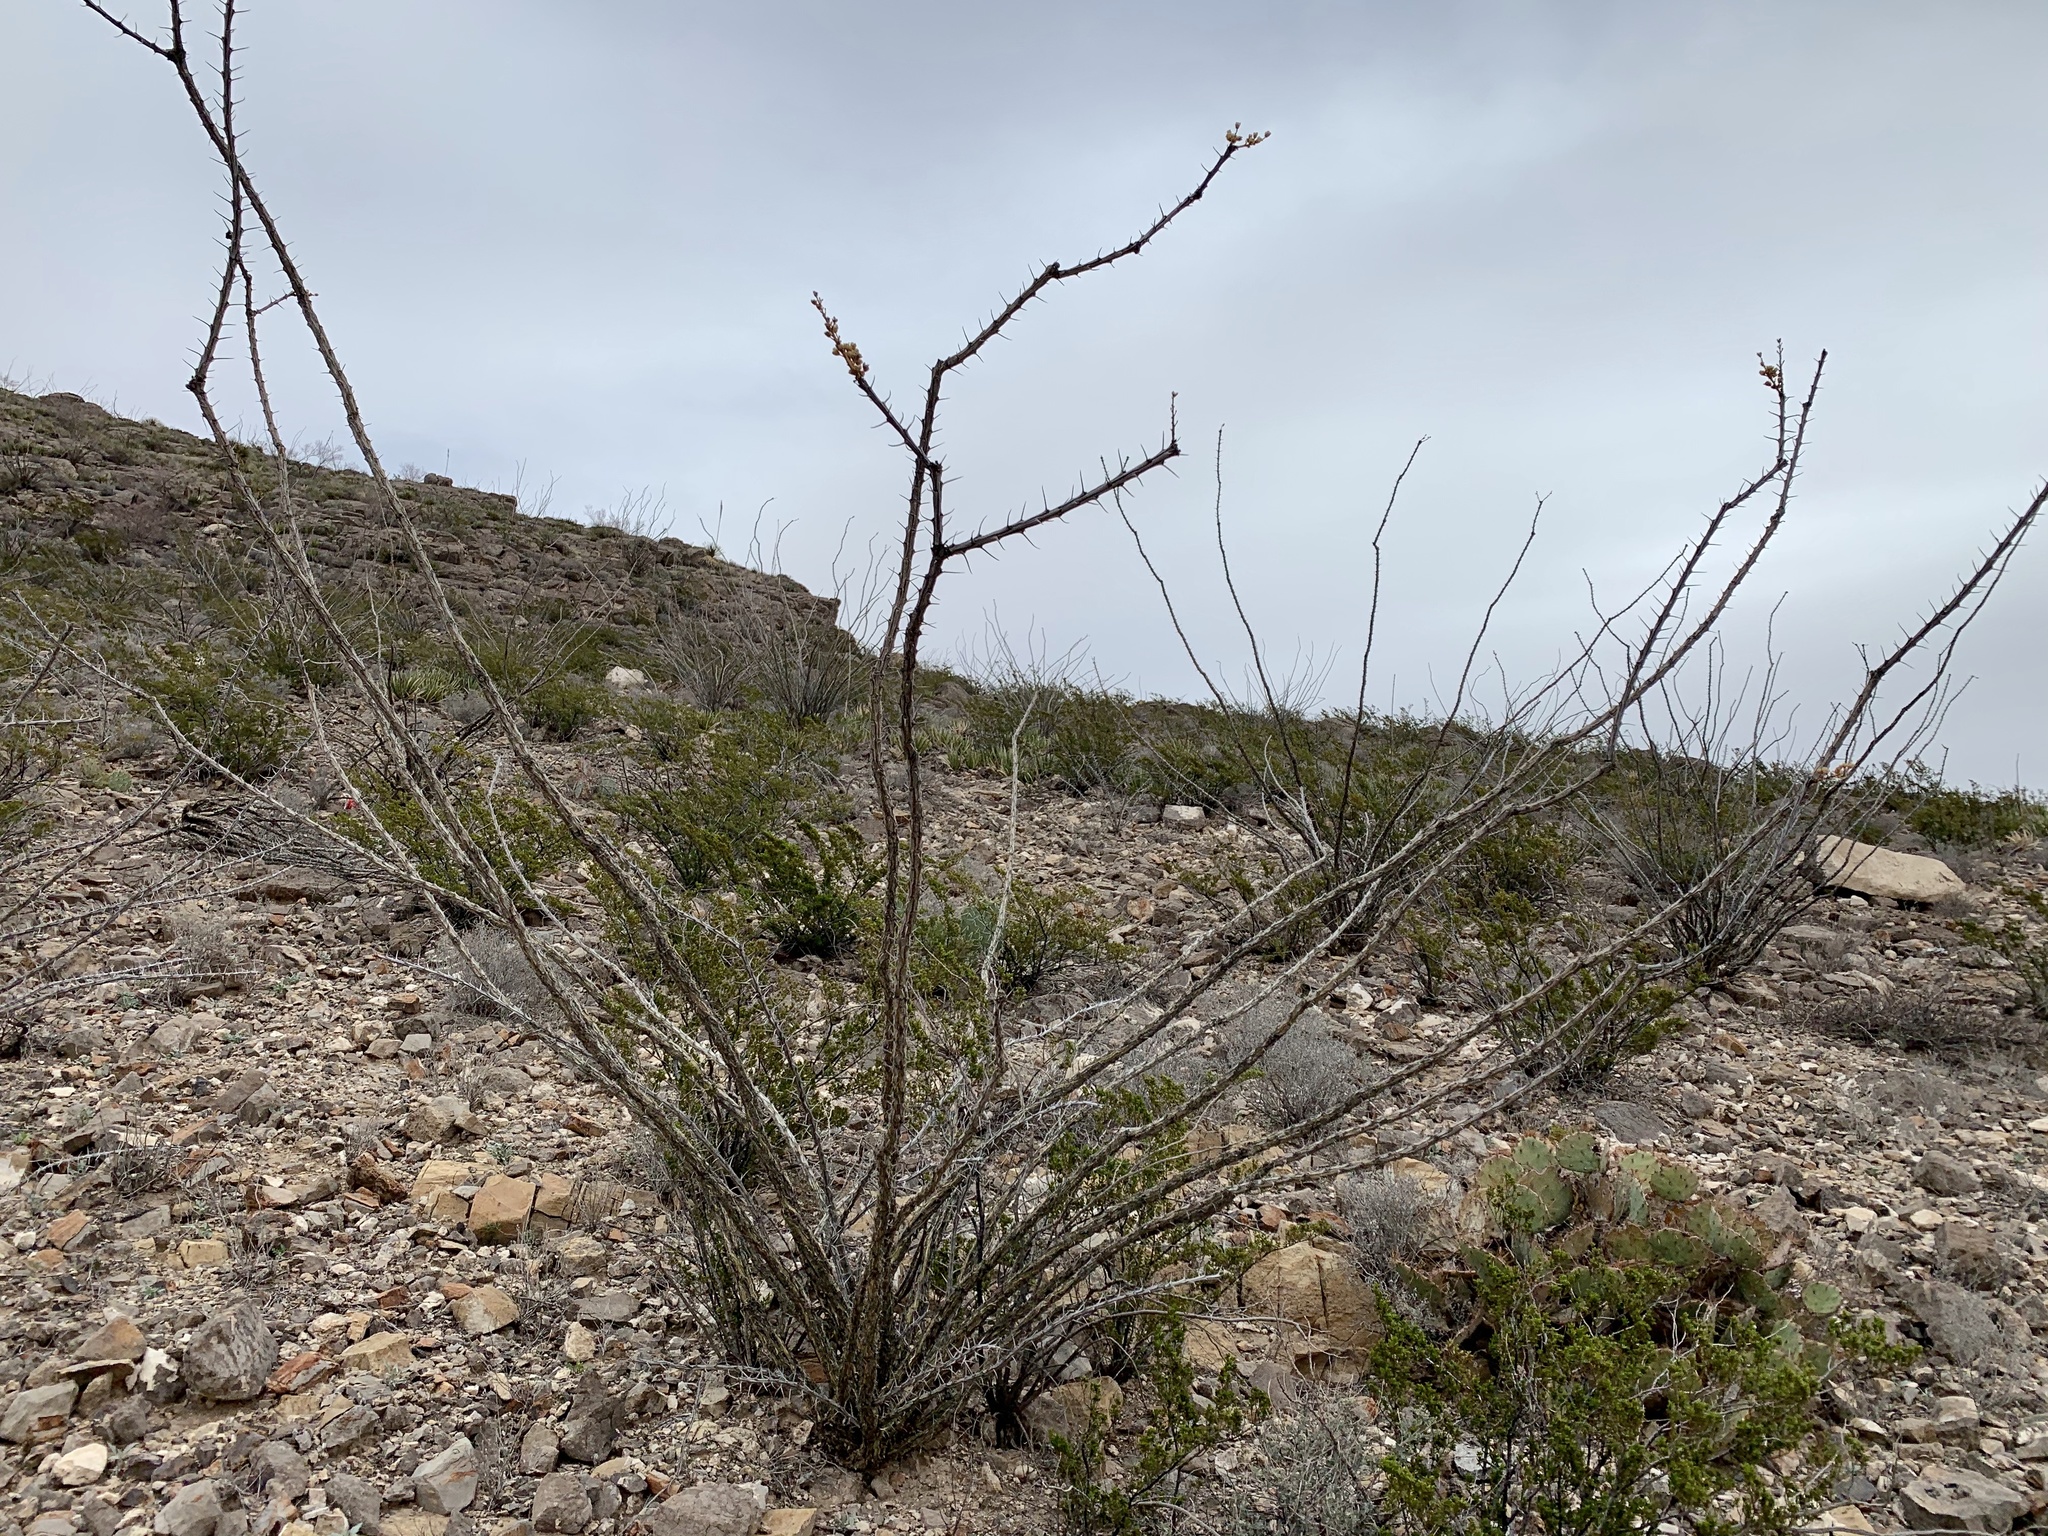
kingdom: Plantae
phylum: Tracheophyta
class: Magnoliopsida
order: Ericales
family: Fouquieriaceae
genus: Fouquieria
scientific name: Fouquieria splendens
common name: Vine-cactus
